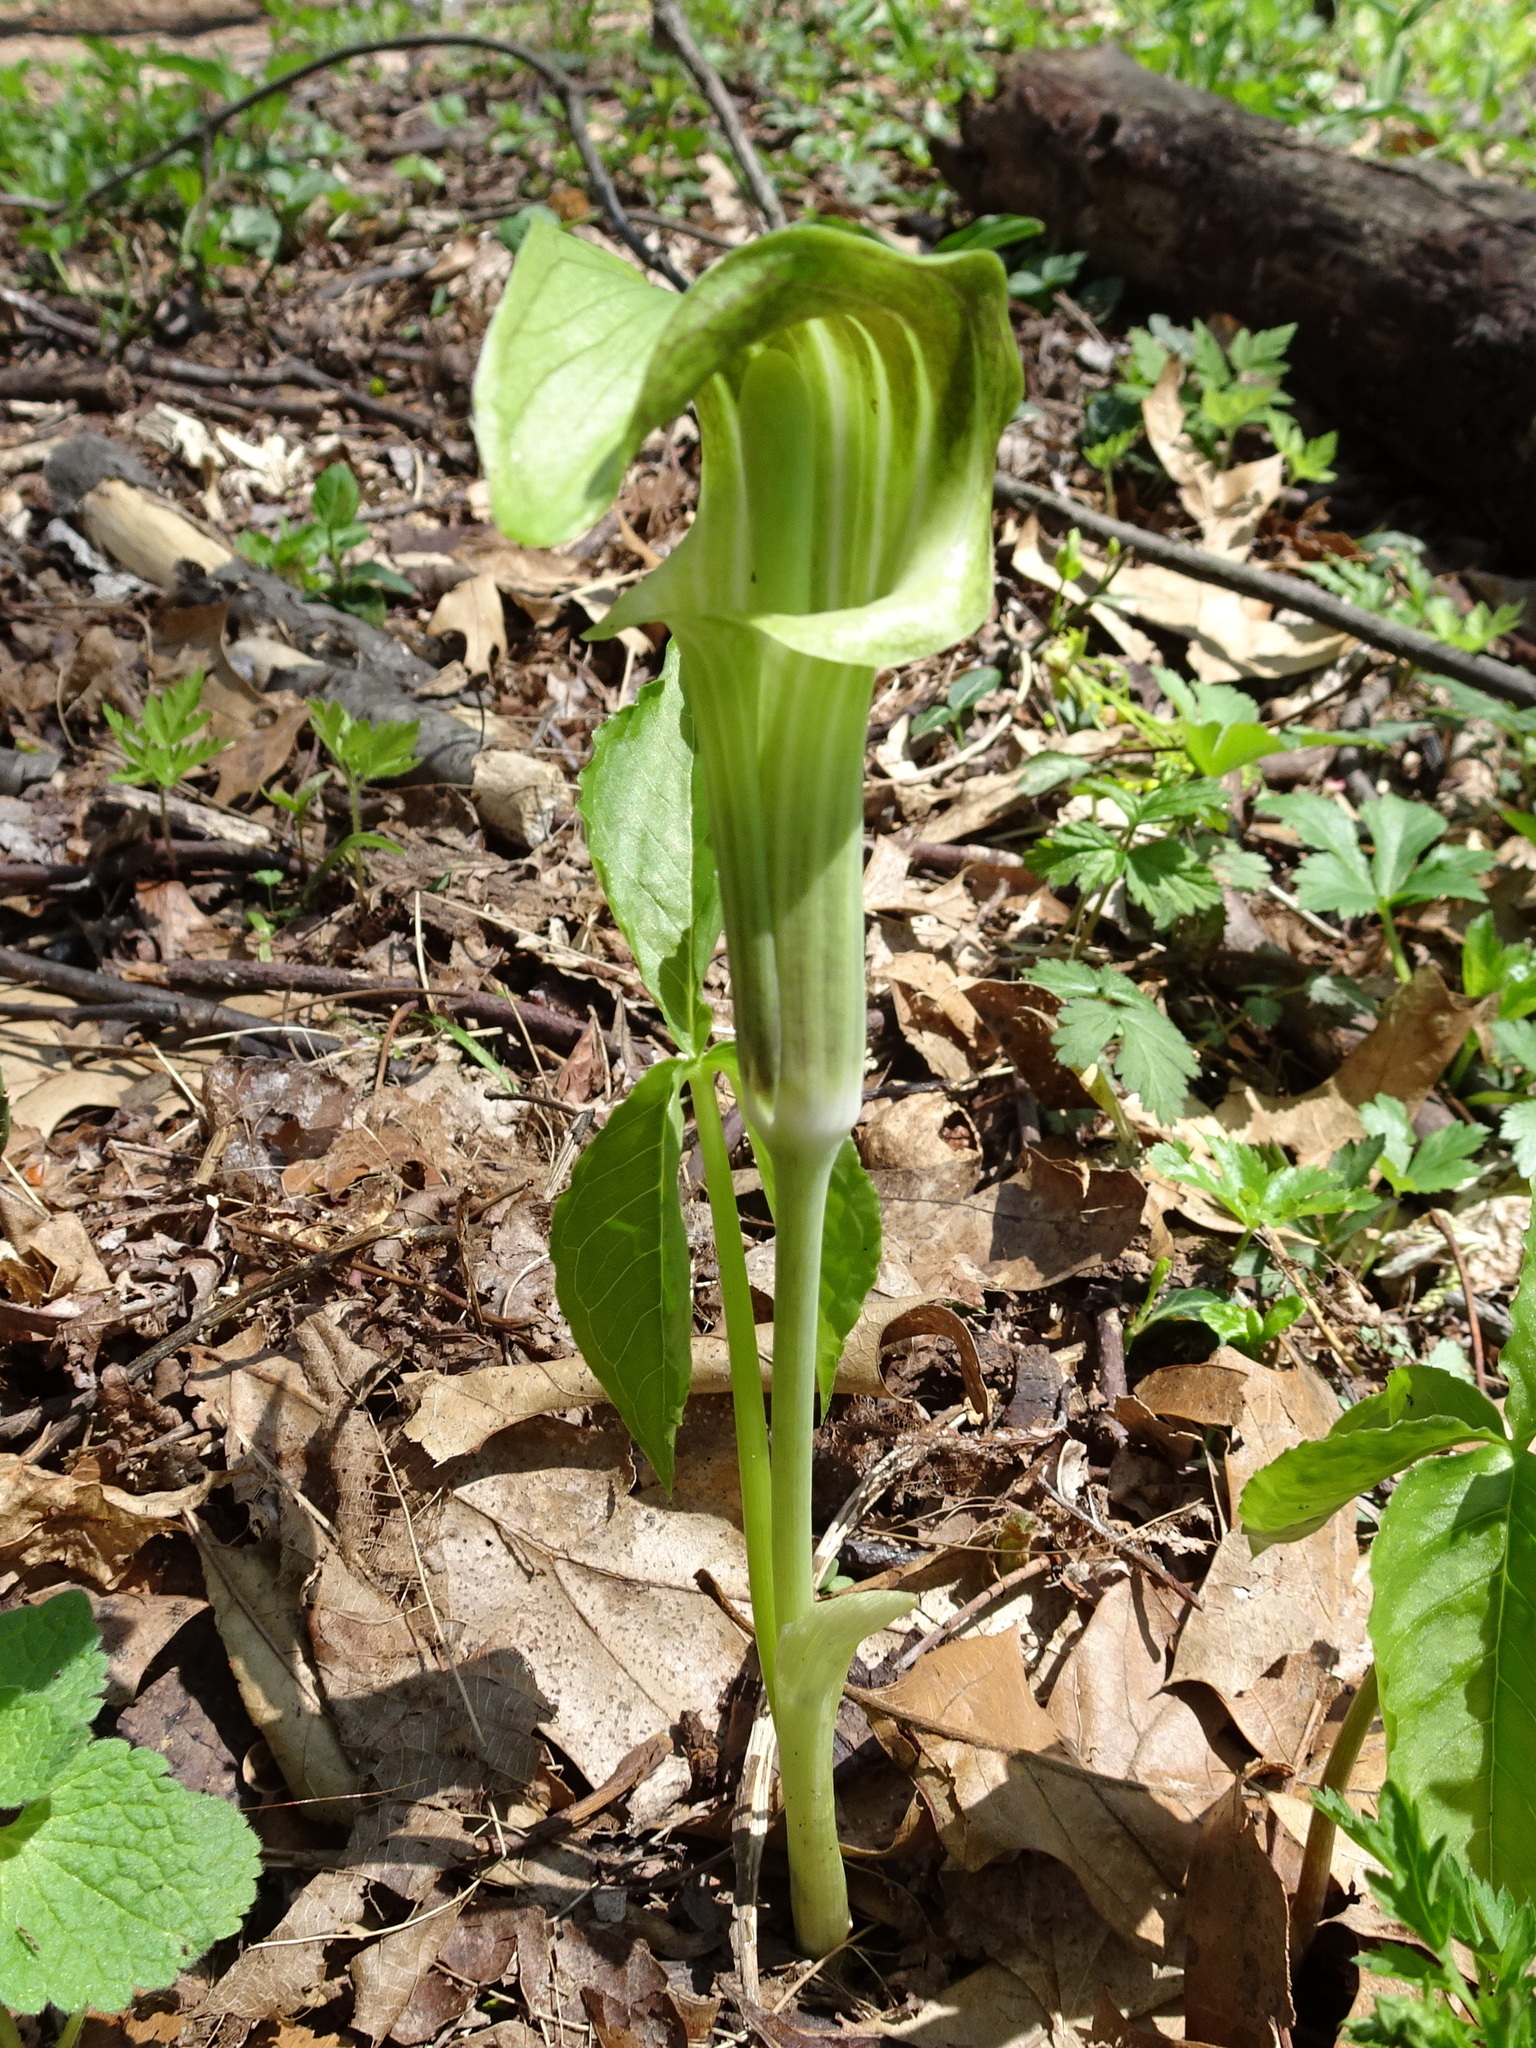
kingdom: Plantae
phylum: Tracheophyta
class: Liliopsida
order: Alismatales
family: Araceae
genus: Arisaema
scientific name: Arisaema triphyllum
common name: Jack-in-the-pulpit
